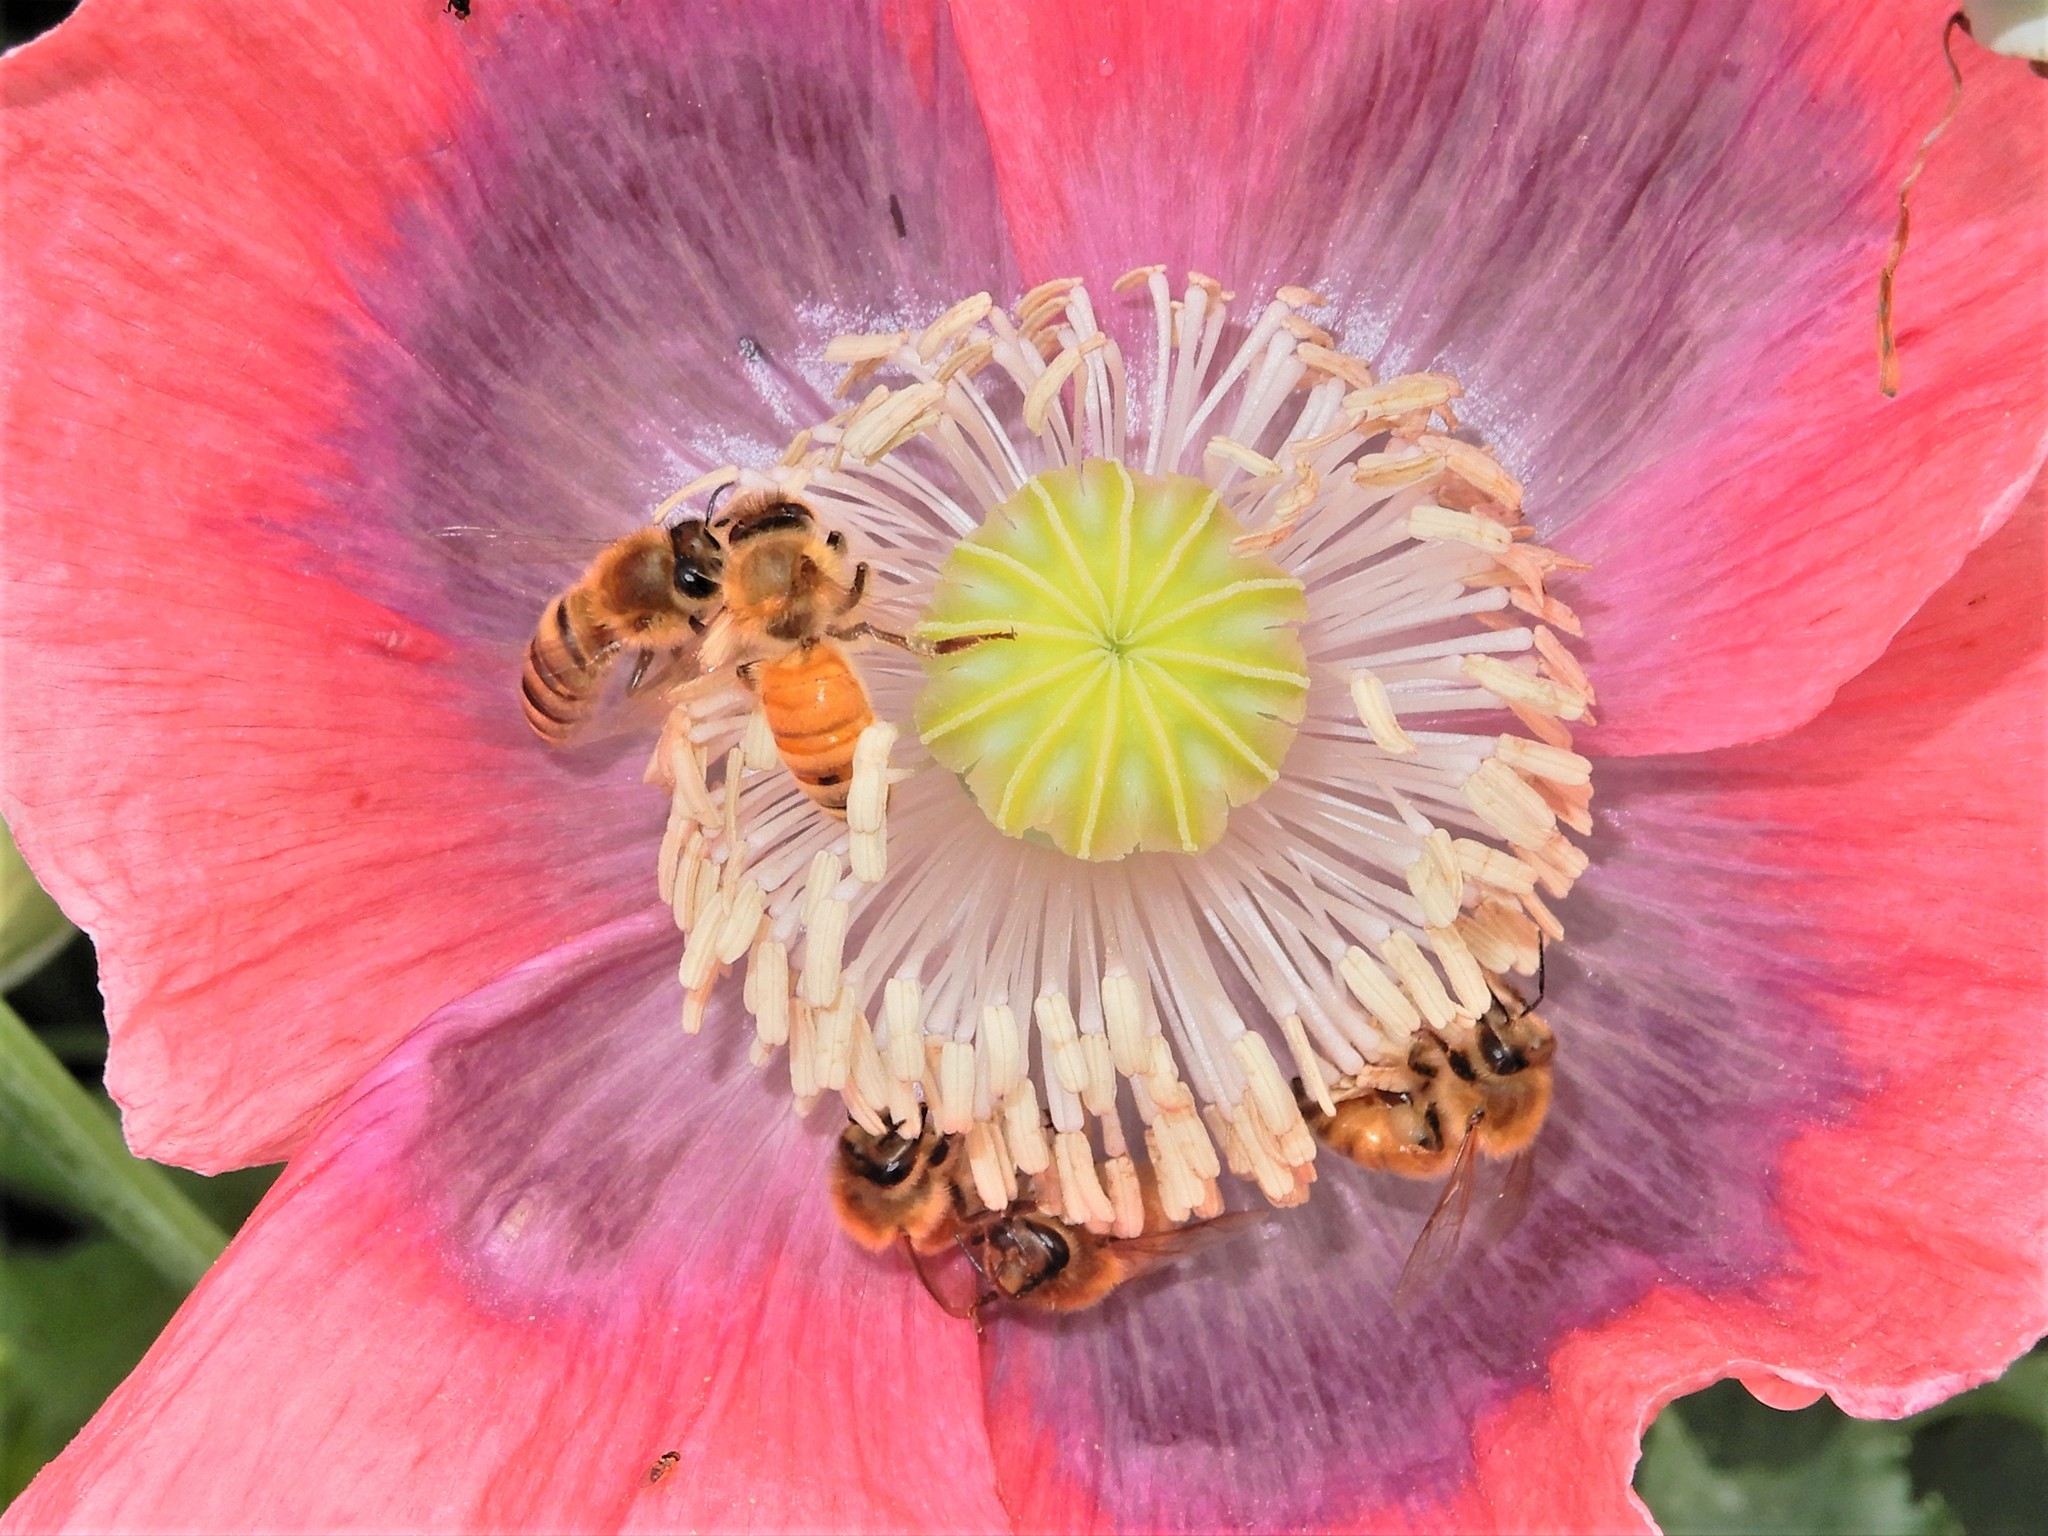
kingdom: Animalia
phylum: Arthropoda
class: Insecta
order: Hymenoptera
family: Apidae
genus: Apis
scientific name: Apis mellifera
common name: Honey bee
